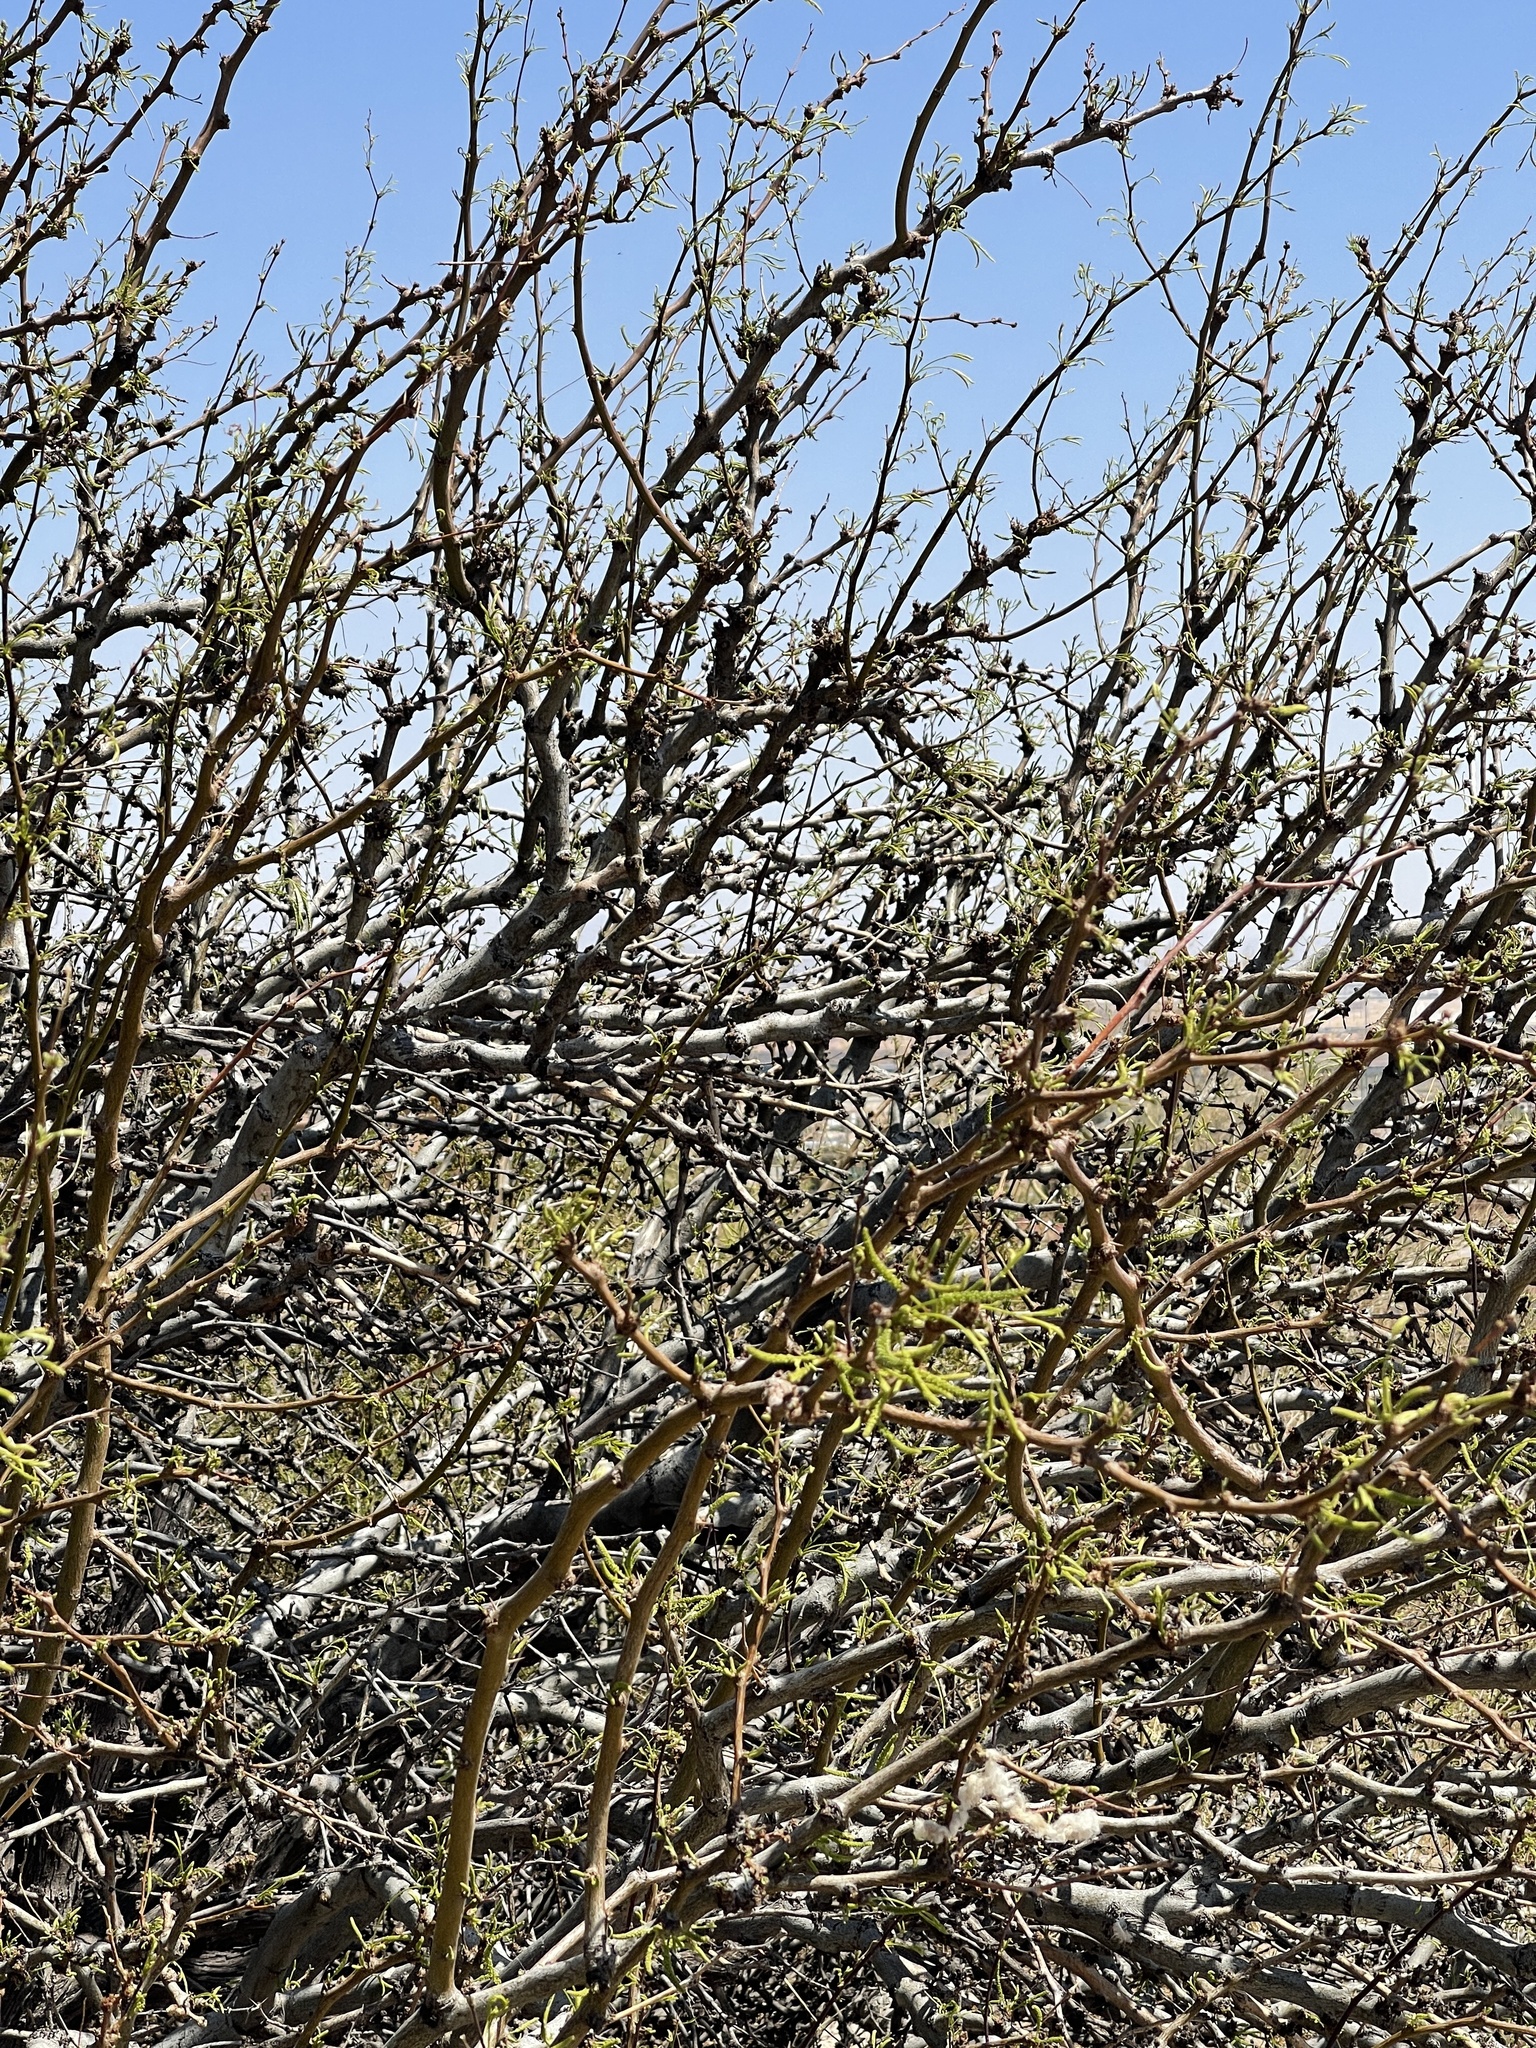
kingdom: Plantae
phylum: Tracheophyta
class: Magnoliopsida
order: Fabales
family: Fabaceae
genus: Prosopis
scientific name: Prosopis glandulosa
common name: Honey mesquite
